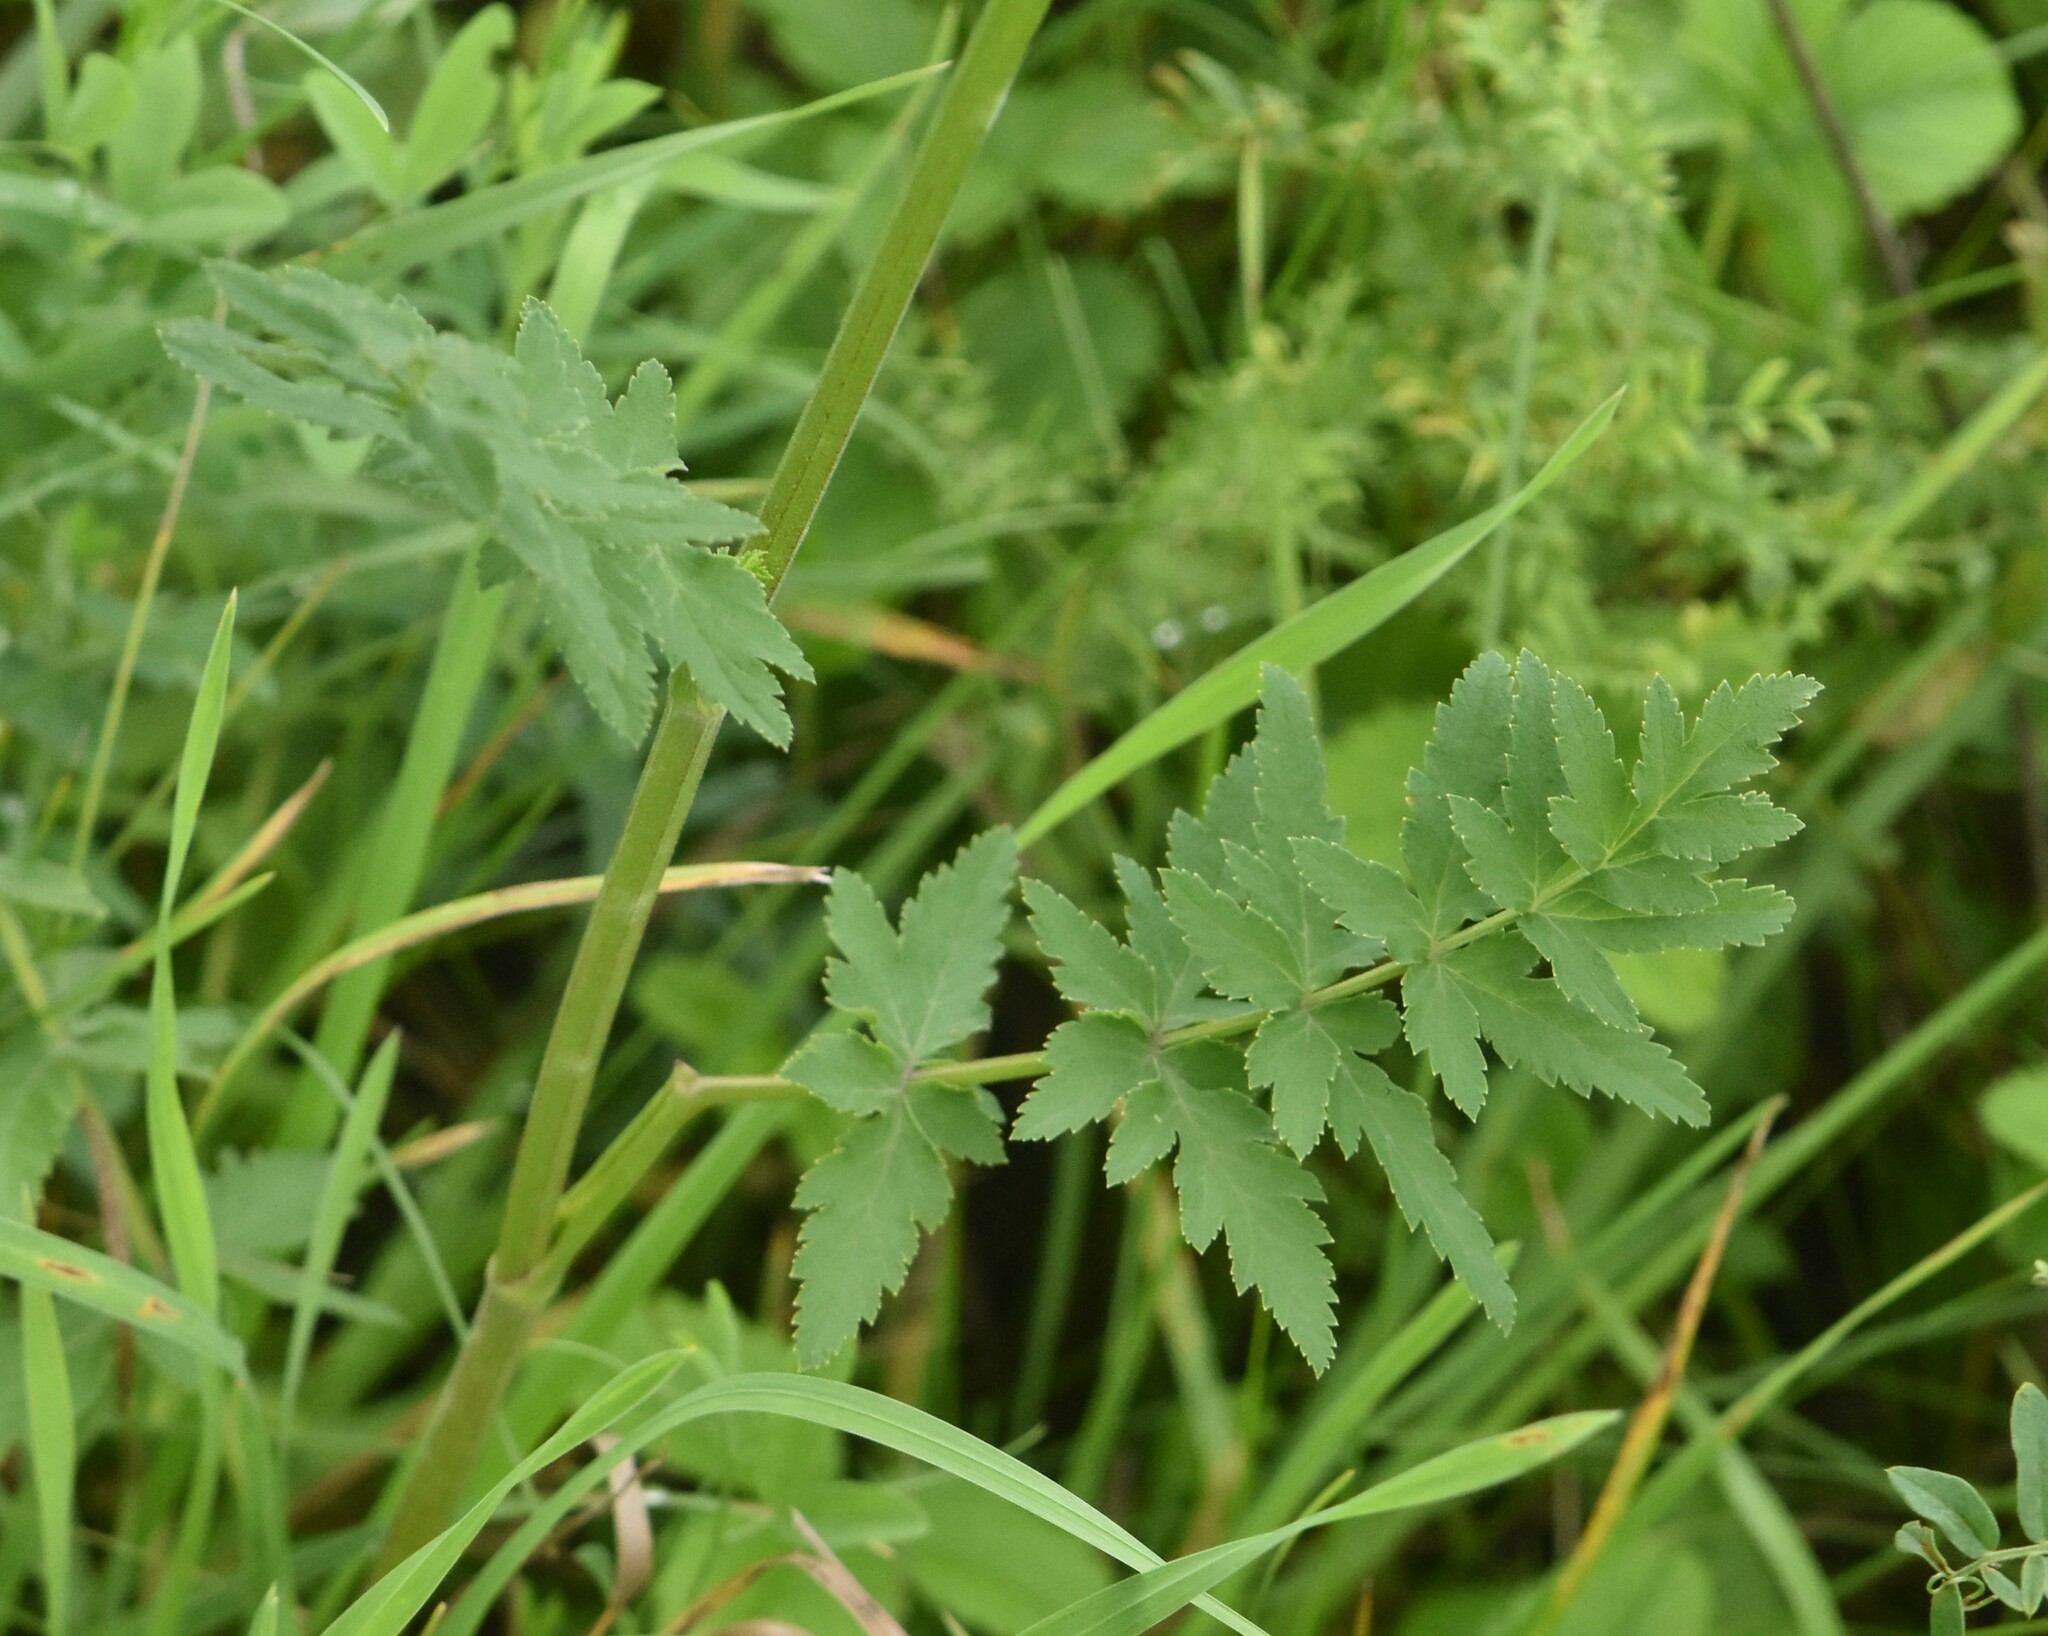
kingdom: Plantae
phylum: Tracheophyta
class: Magnoliopsida
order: Apiales
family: Apiaceae
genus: Pastinaca
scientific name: Pastinaca sativa
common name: Wild parsnip
